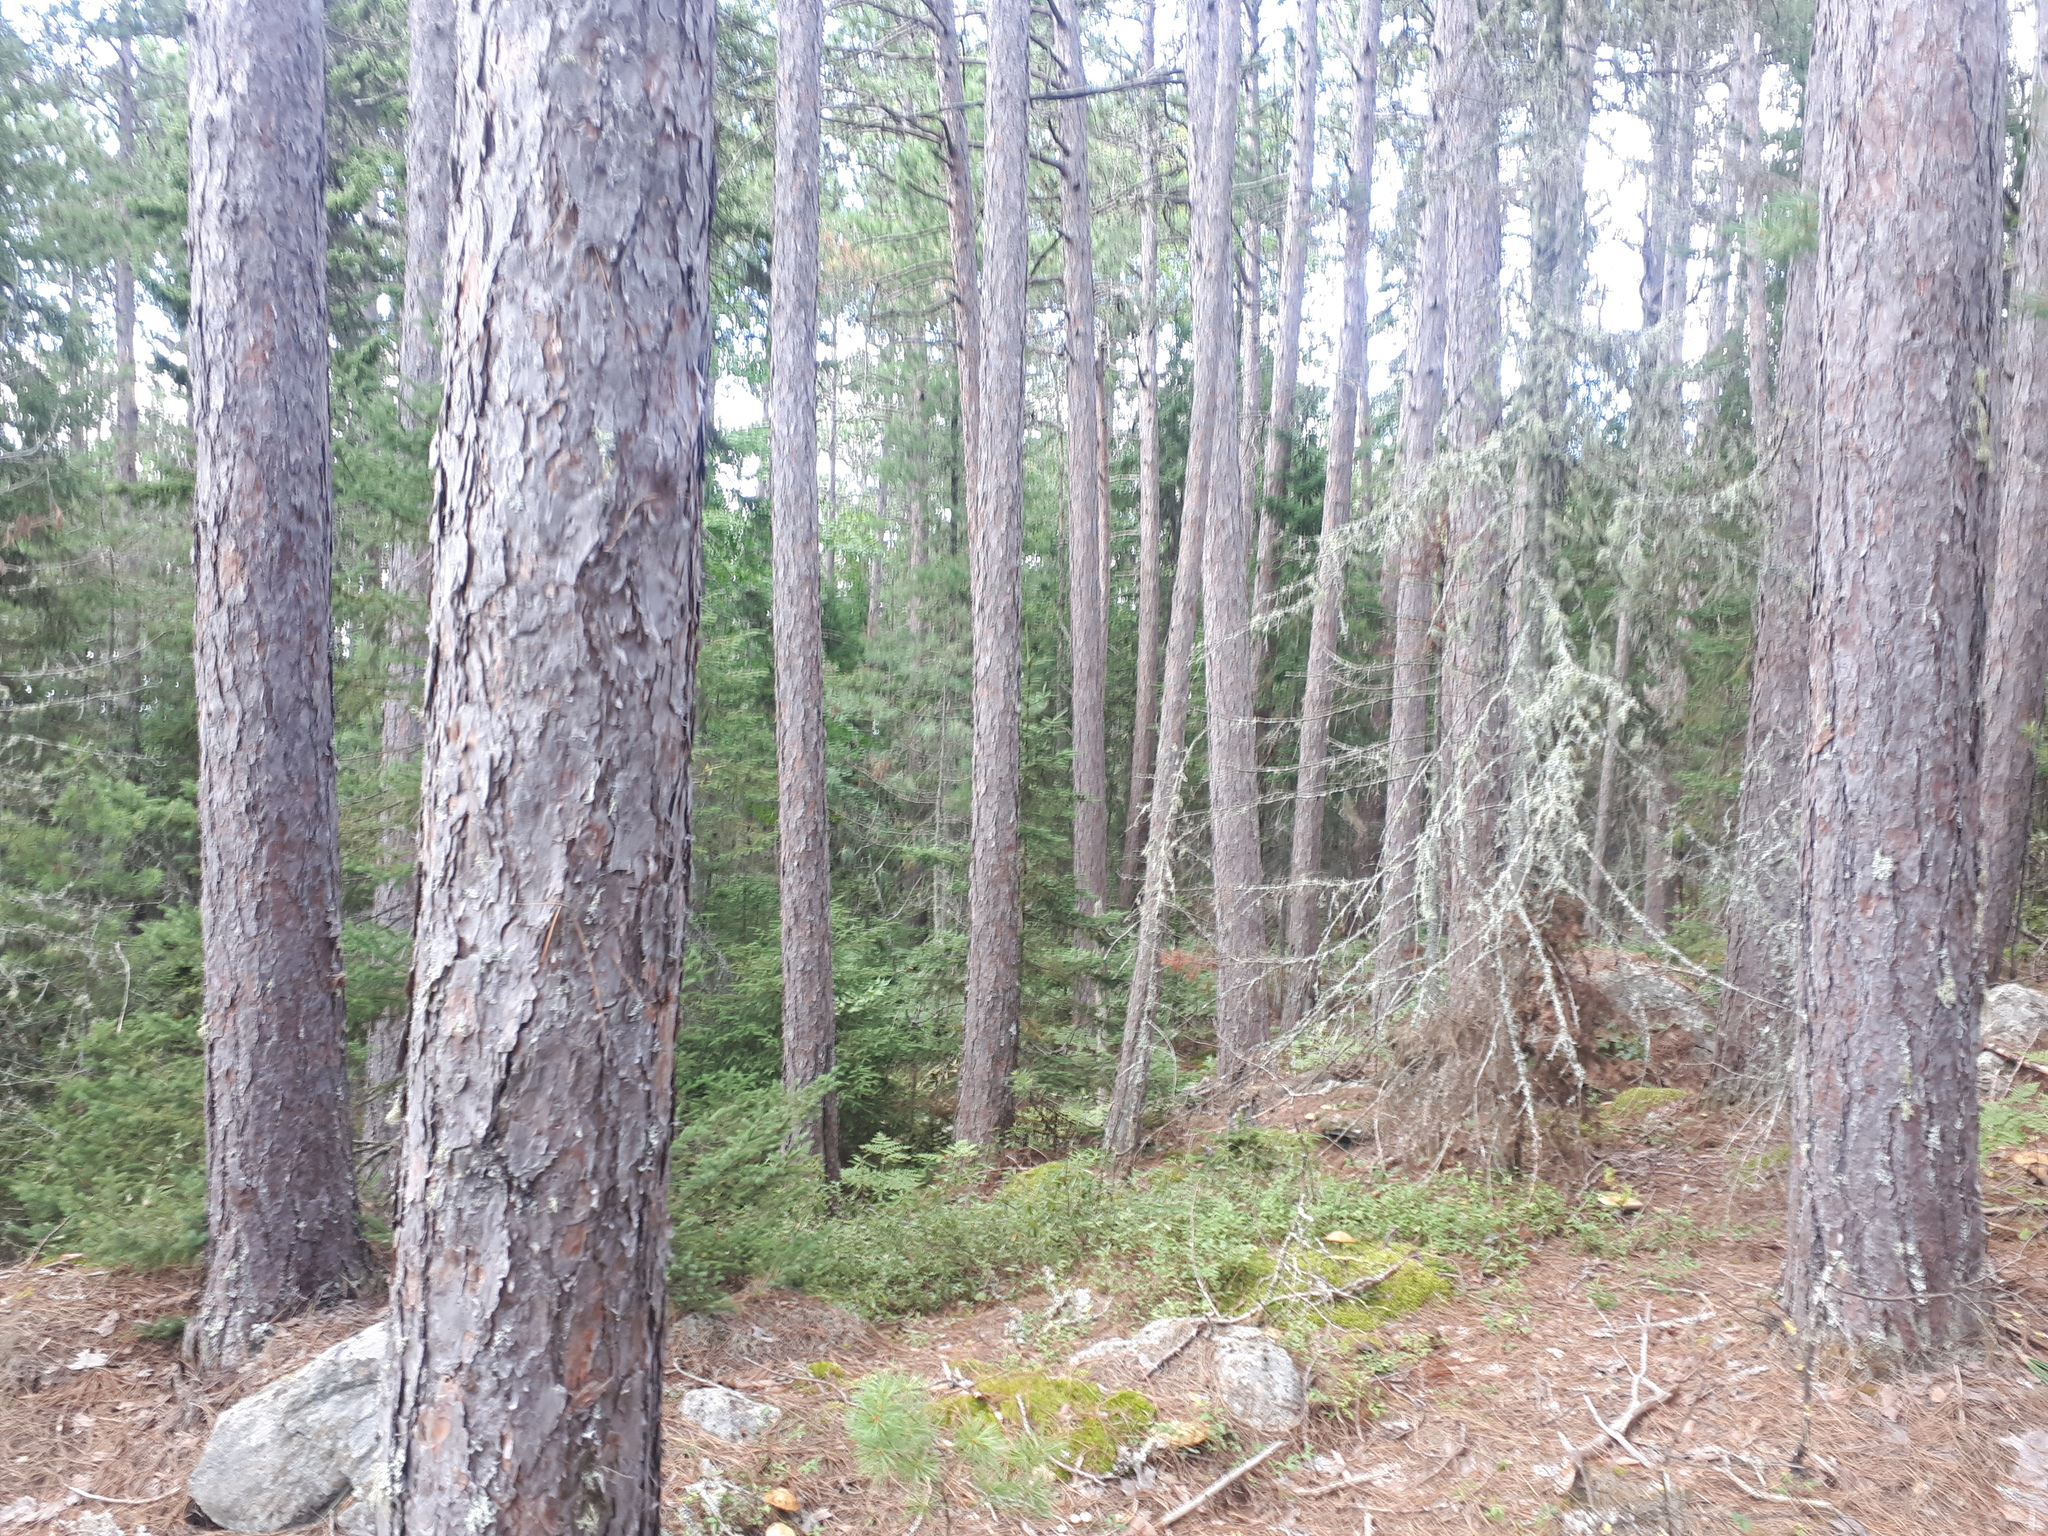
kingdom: Plantae
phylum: Tracheophyta
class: Pinopsida
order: Pinales
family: Pinaceae
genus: Pinus
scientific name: Pinus resinosa
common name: Norway pine
